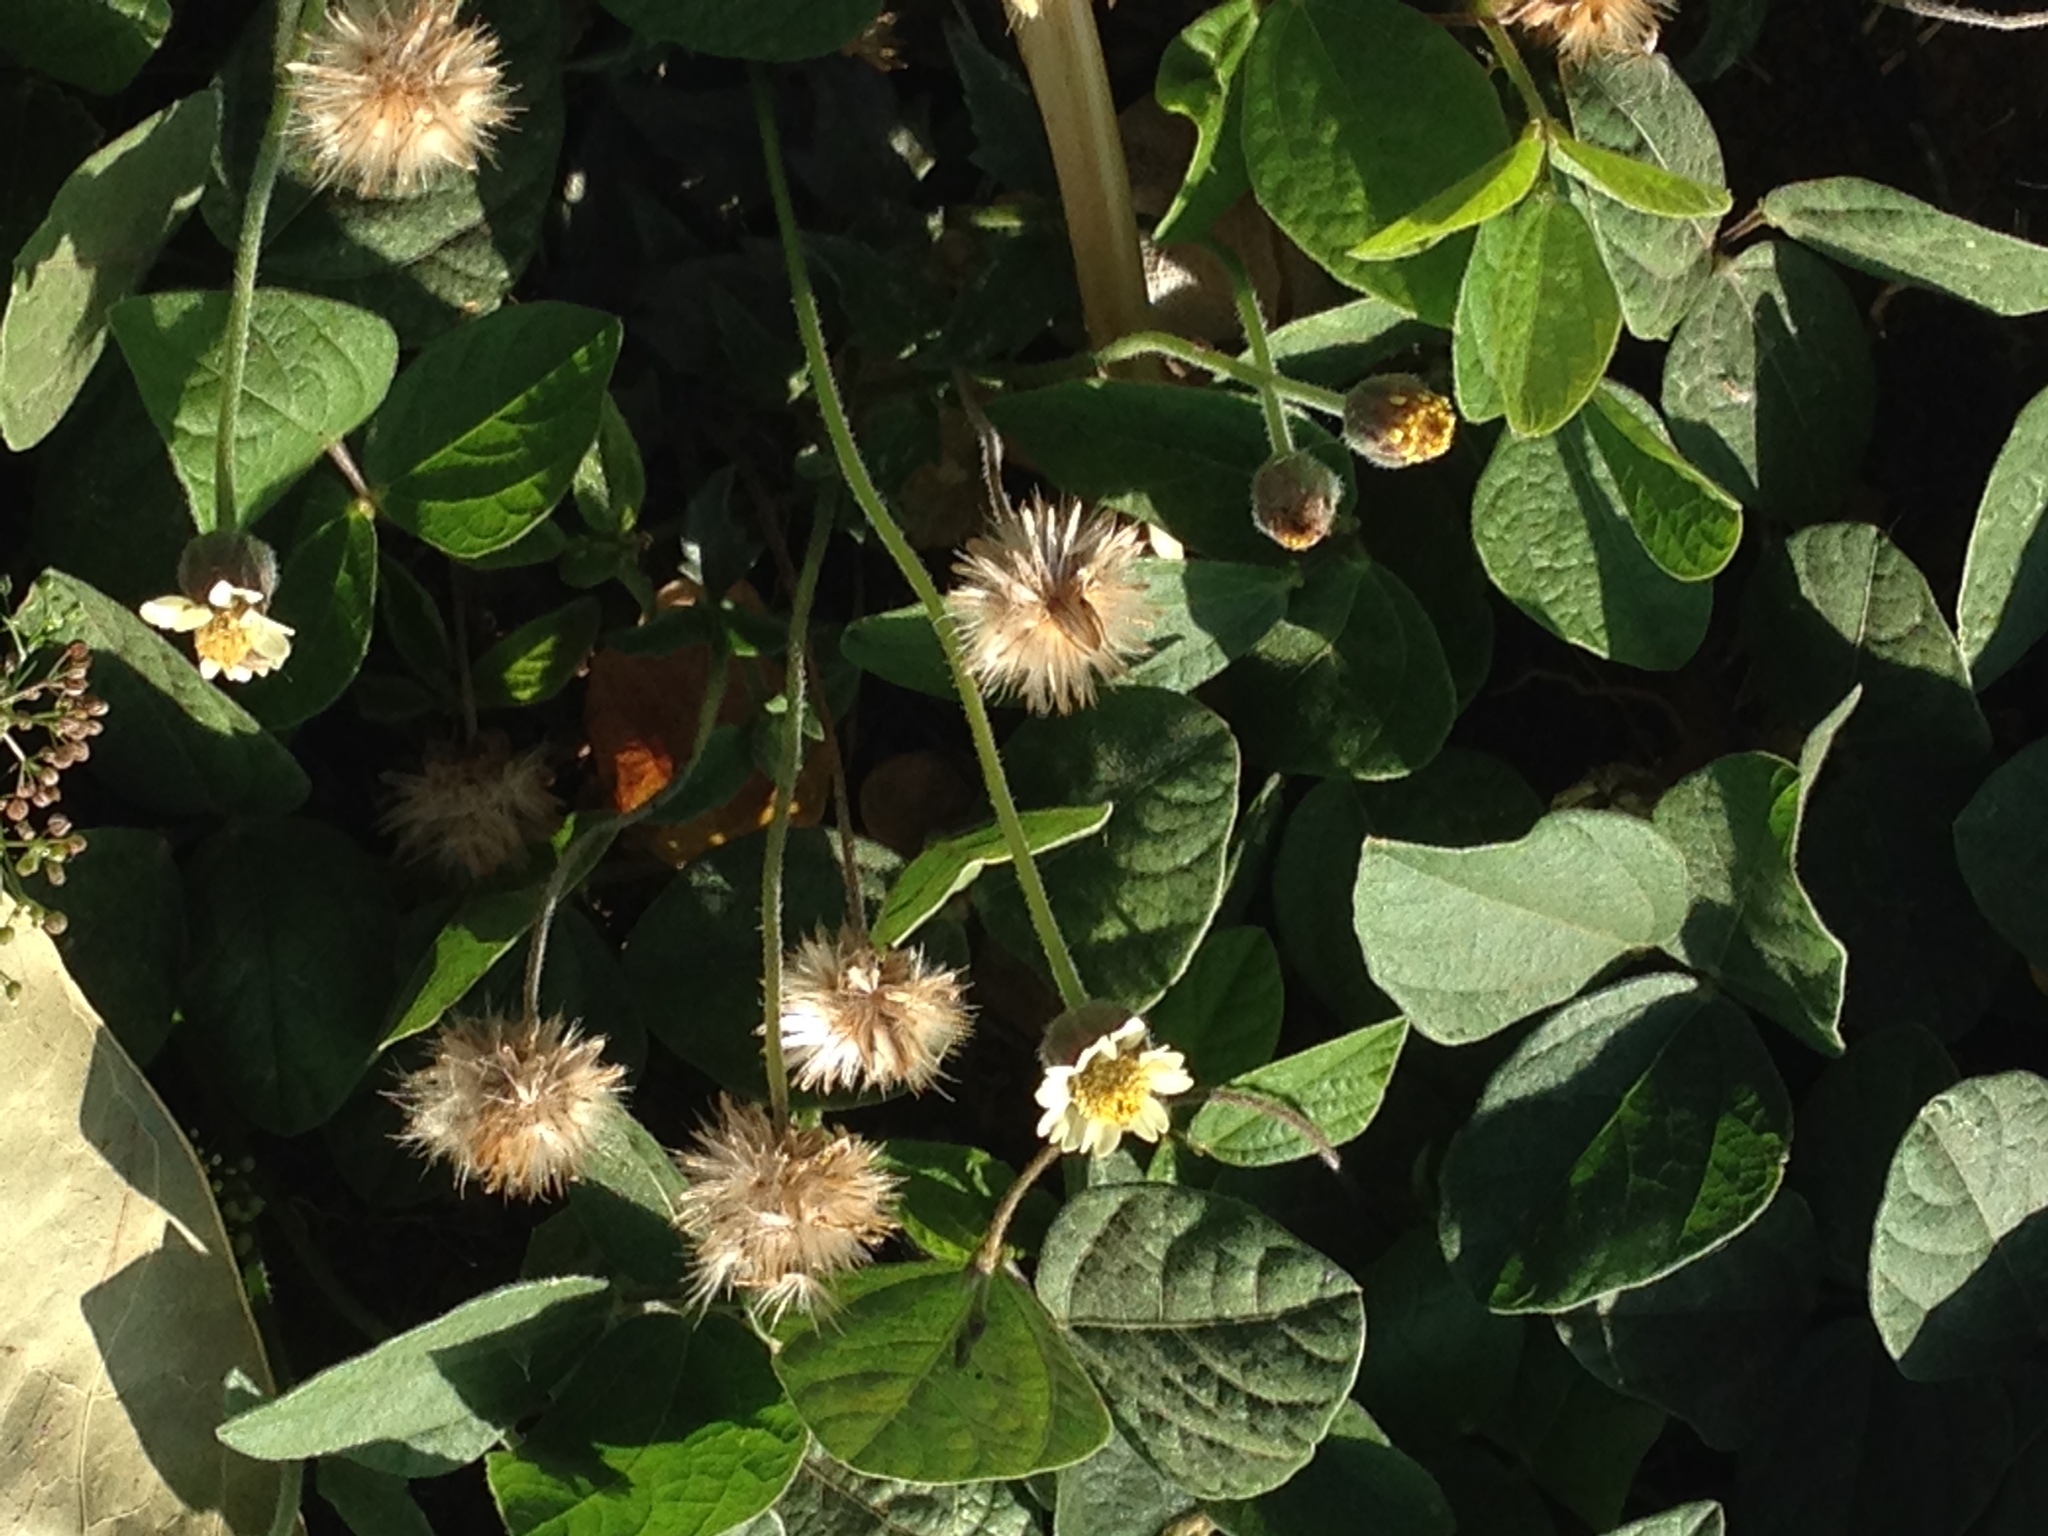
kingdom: Plantae
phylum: Tracheophyta
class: Magnoliopsida
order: Asterales
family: Asteraceae
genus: Tridax
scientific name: Tridax procumbens
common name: Coatbuttons
